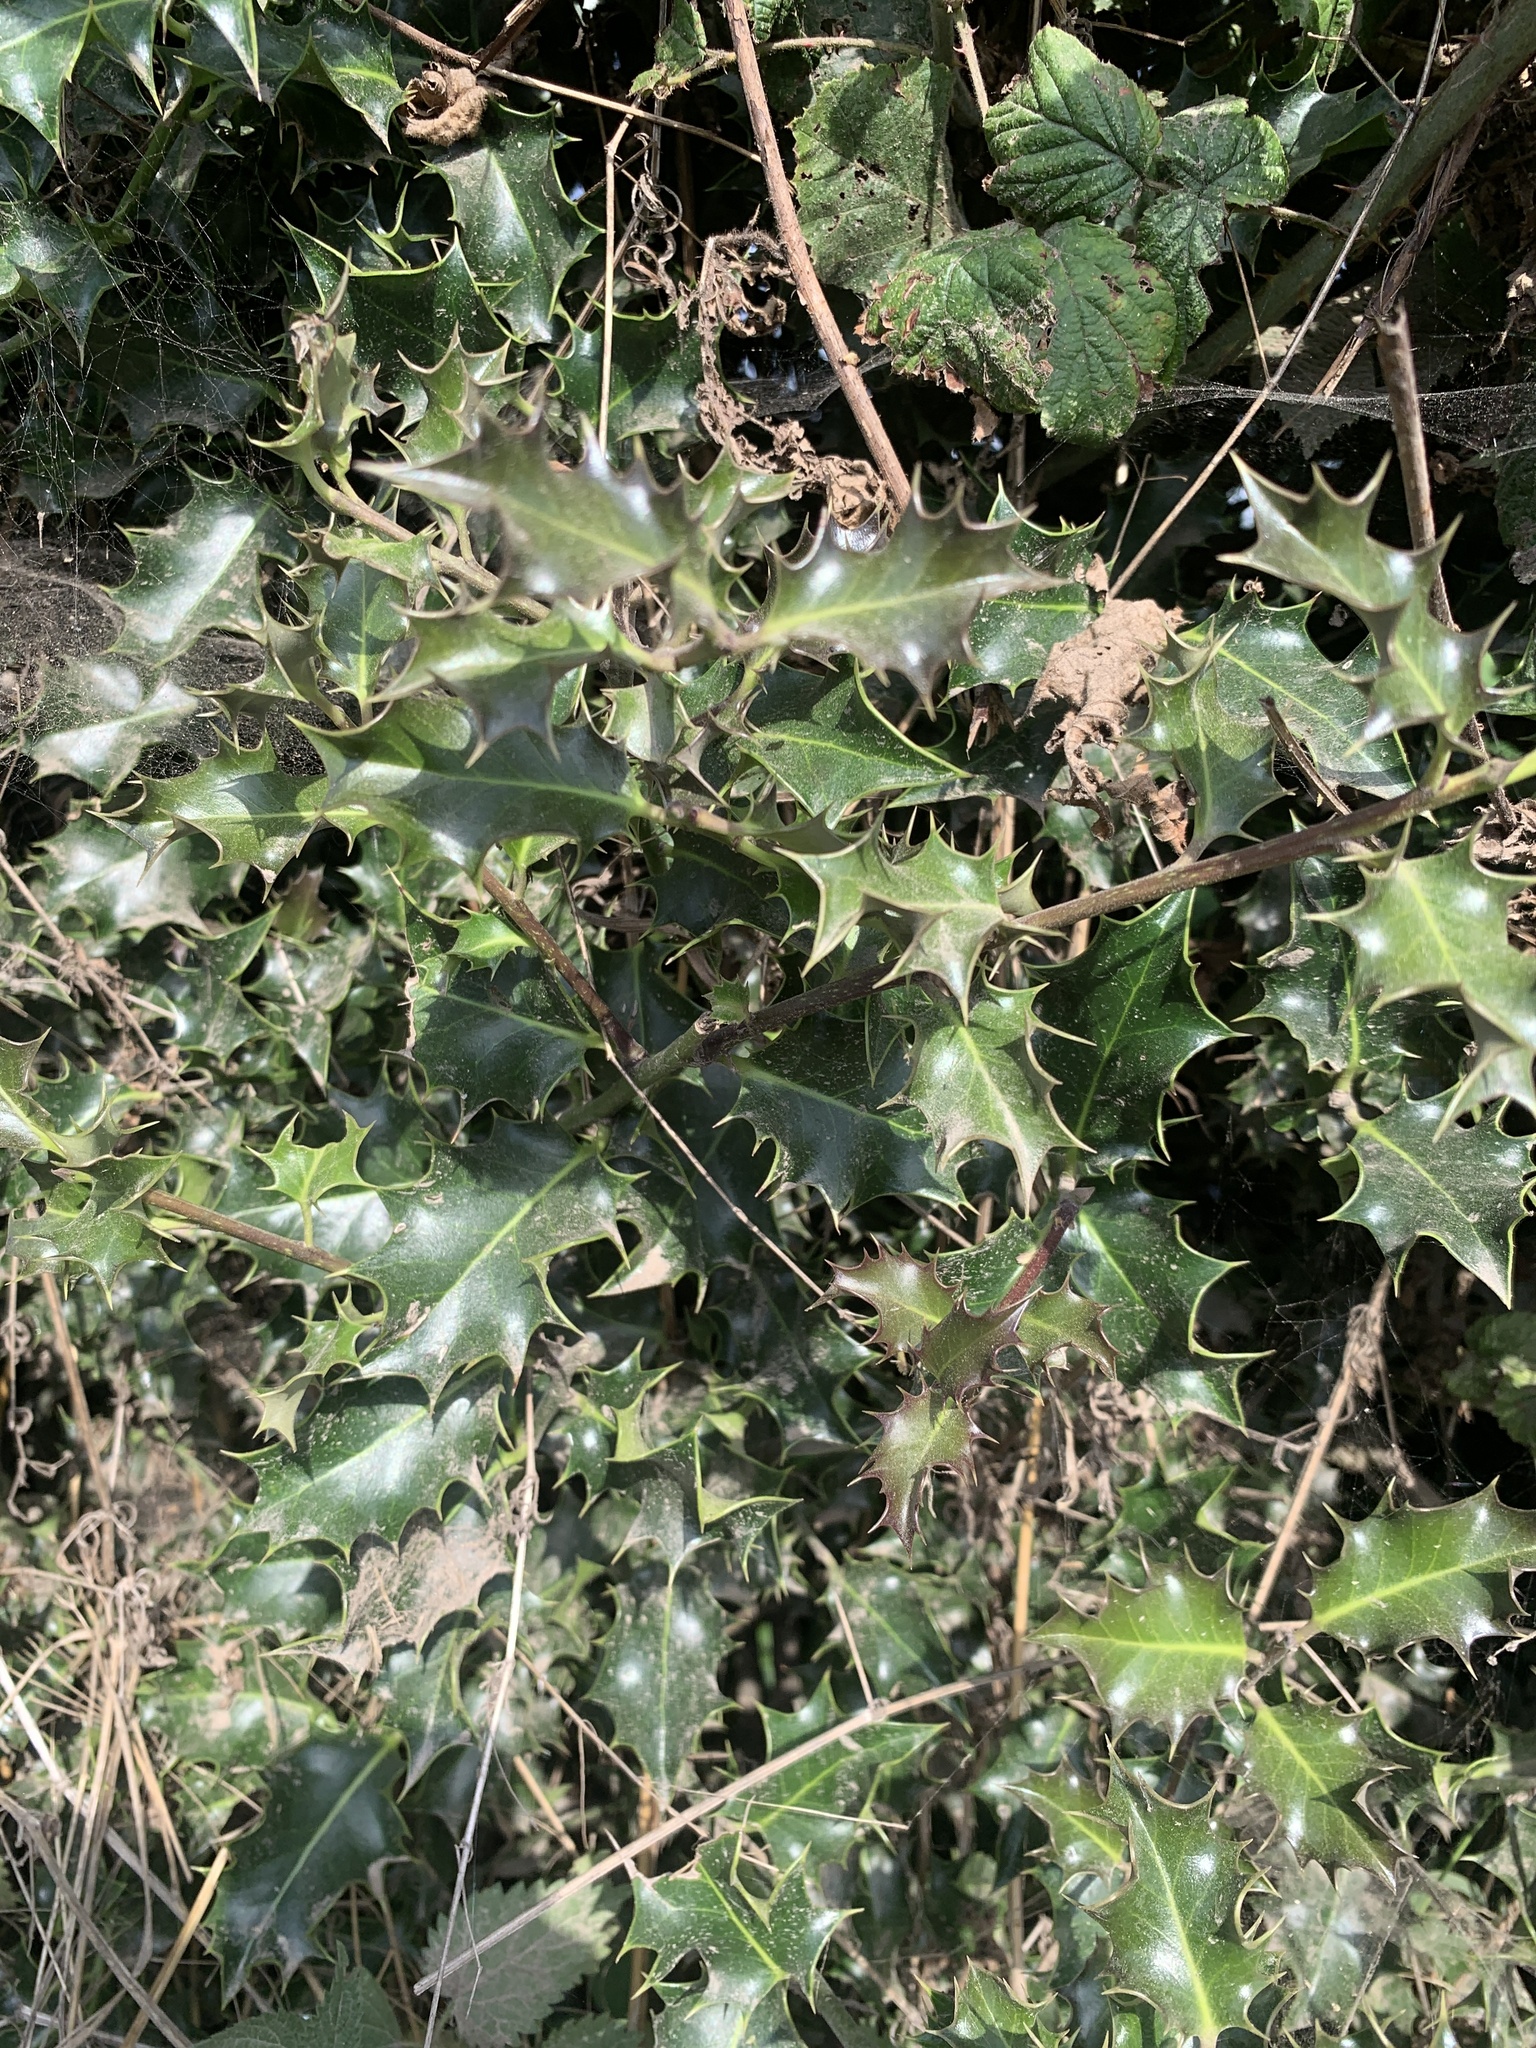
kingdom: Plantae
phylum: Tracheophyta
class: Magnoliopsida
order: Aquifoliales
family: Aquifoliaceae
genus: Ilex
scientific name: Ilex aquifolium
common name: English holly
